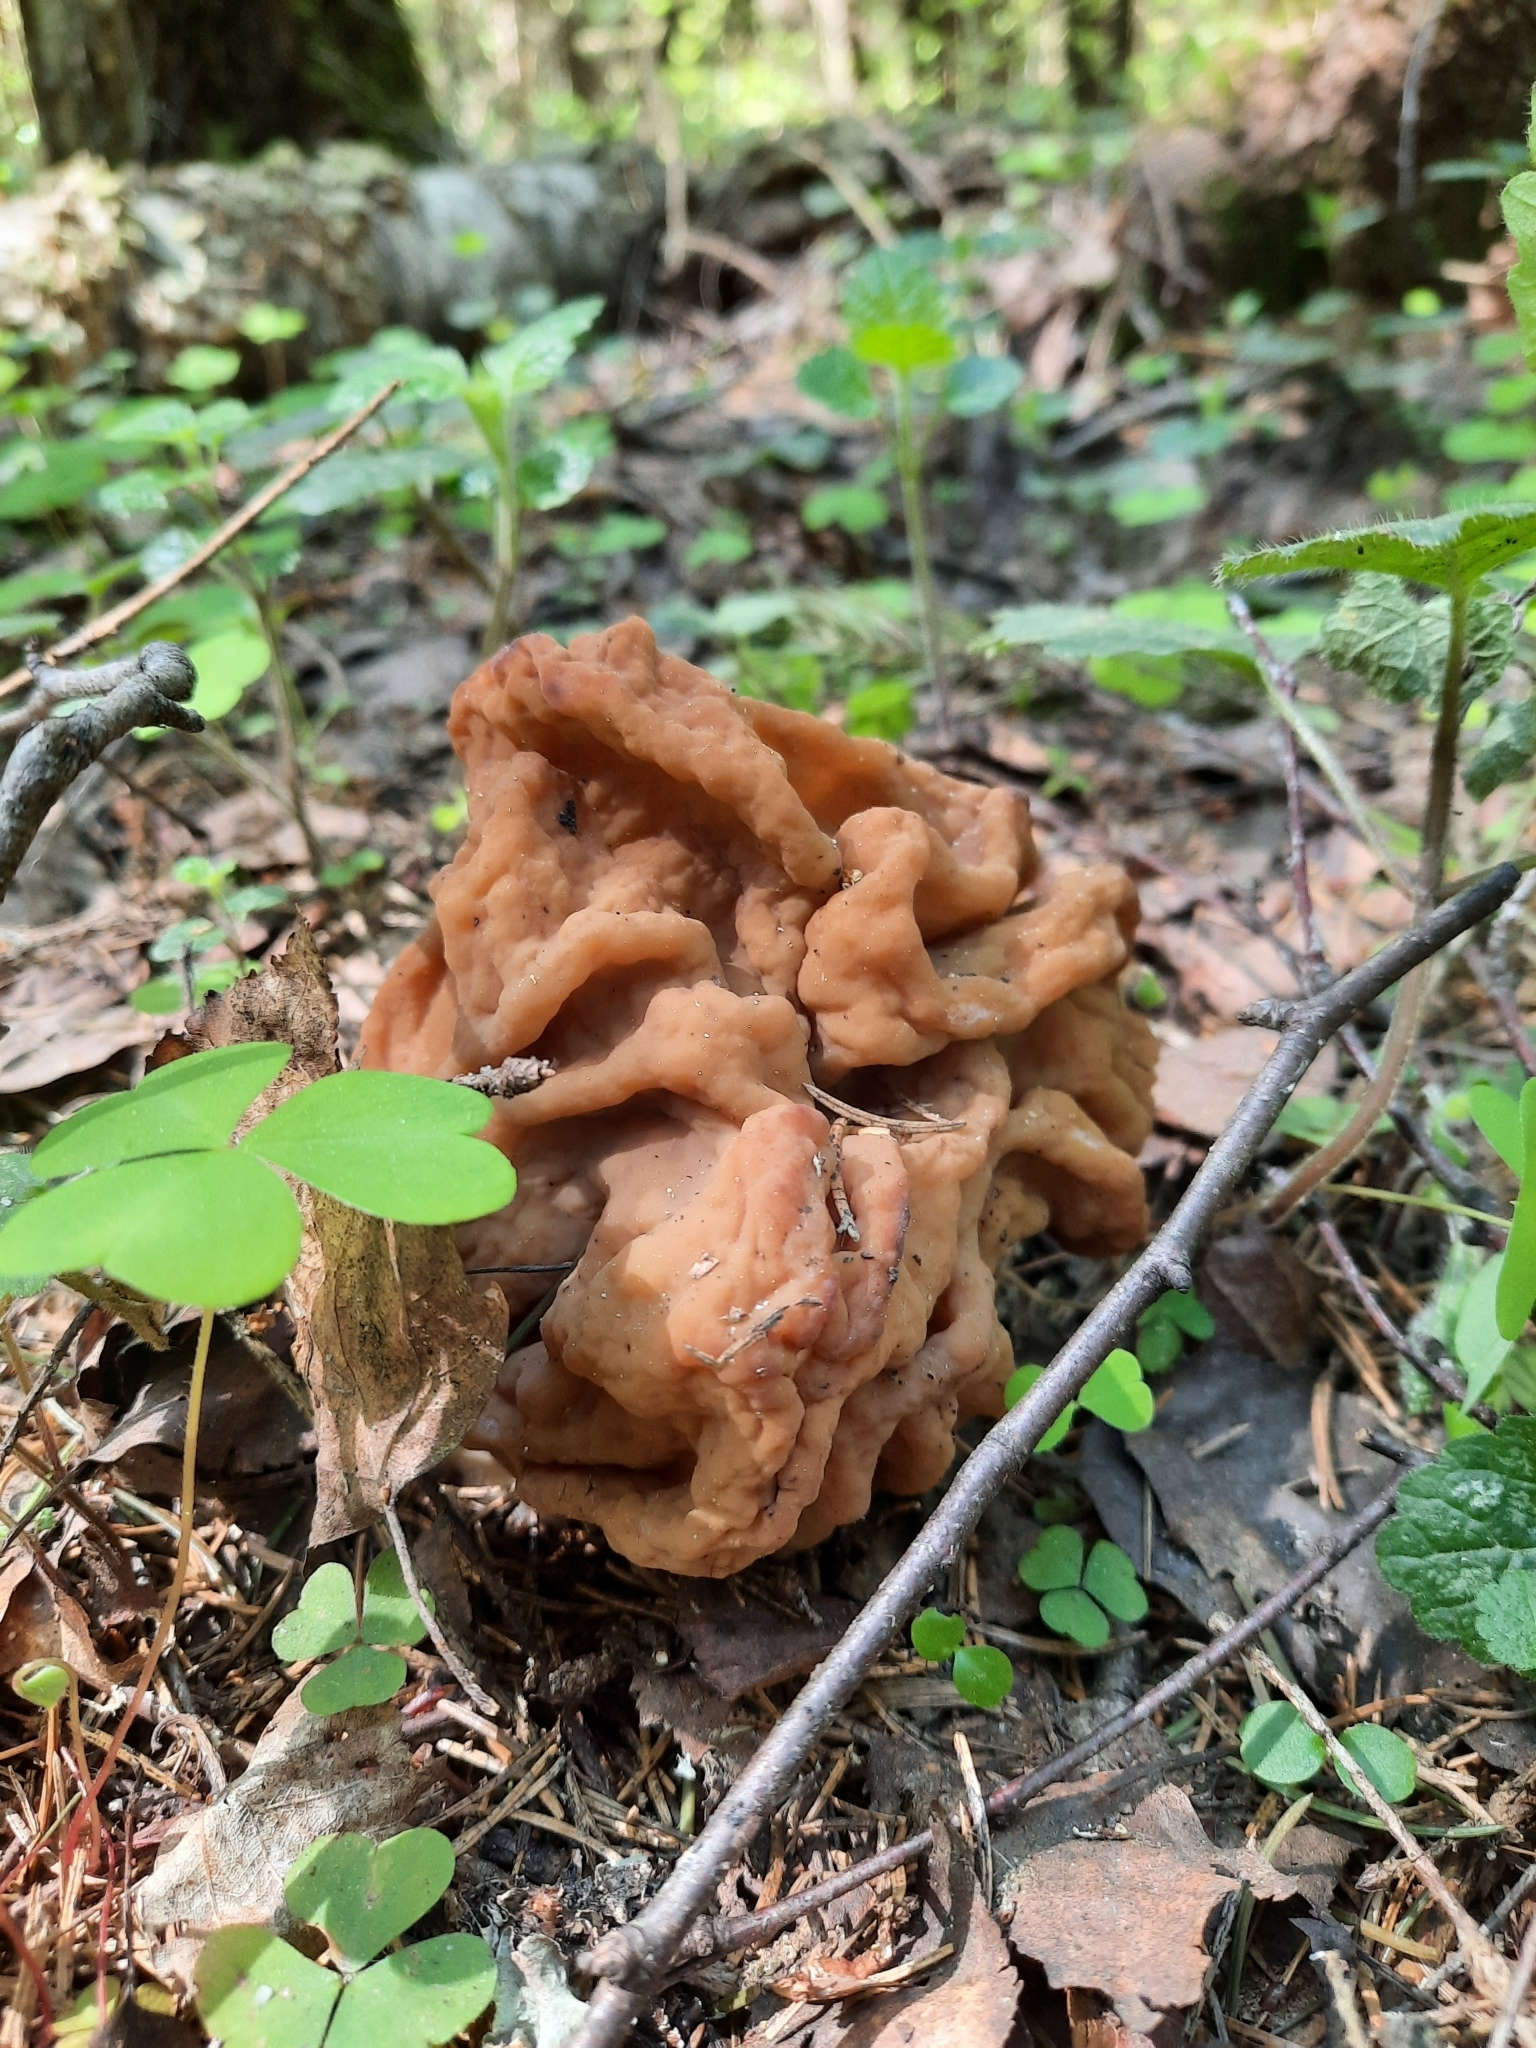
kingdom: Fungi
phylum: Ascomycota
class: Pezizomycetes
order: Pezizales
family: Discinaceae
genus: Gyromitra
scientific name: Gyromitra gigas
